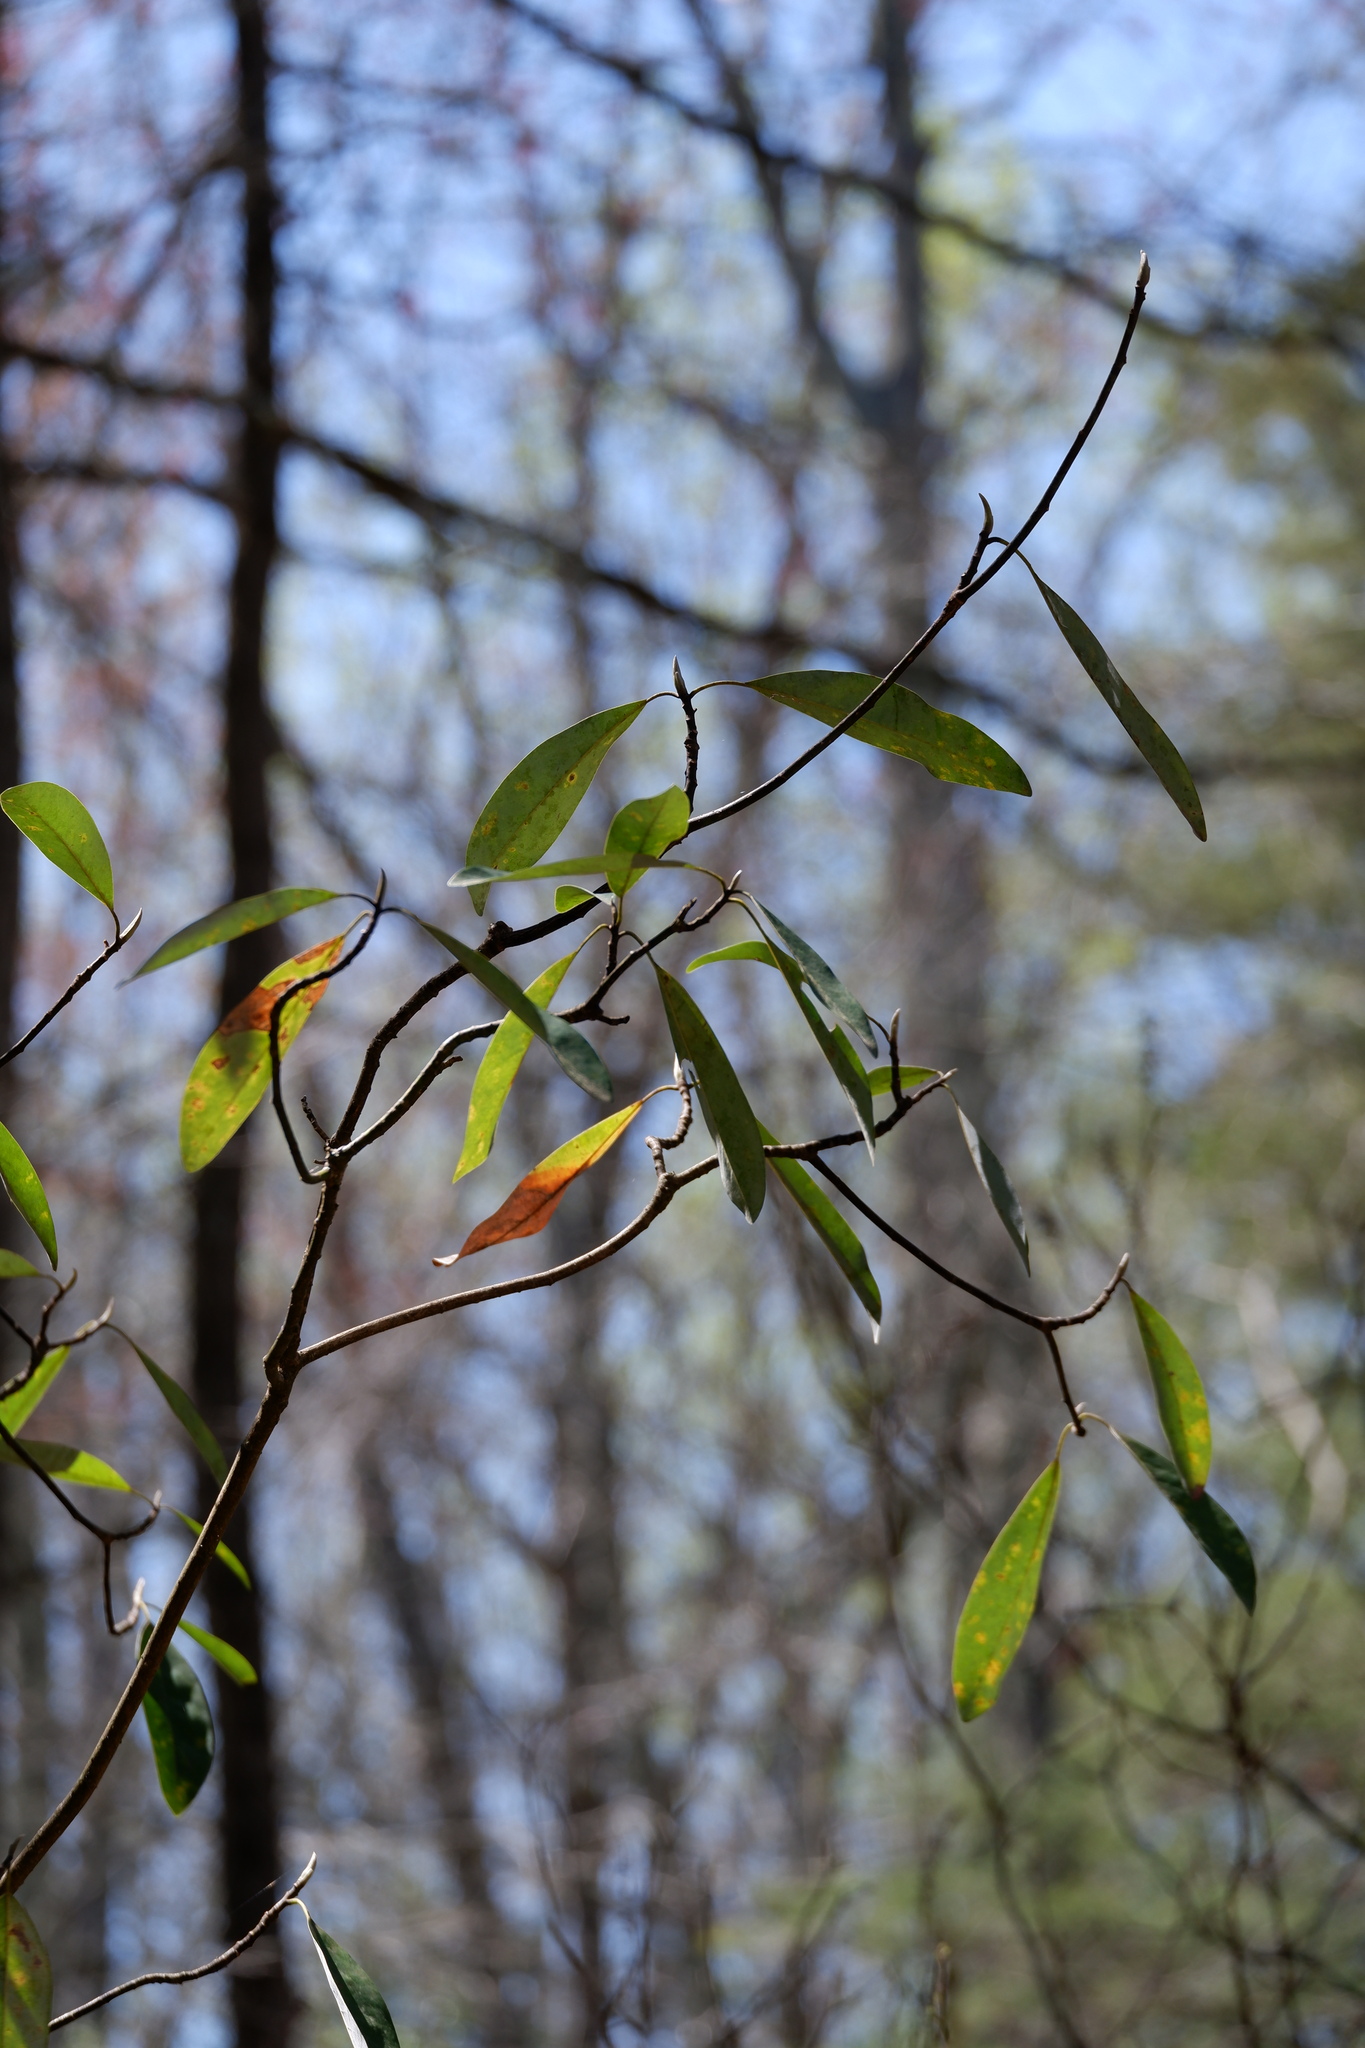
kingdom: Plantae
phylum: Tracheophyta
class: Magnoliopsida
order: Magnoliales
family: Magnoliaceae
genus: Magnolia
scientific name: Magnolia virginiana
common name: Swamp bay
